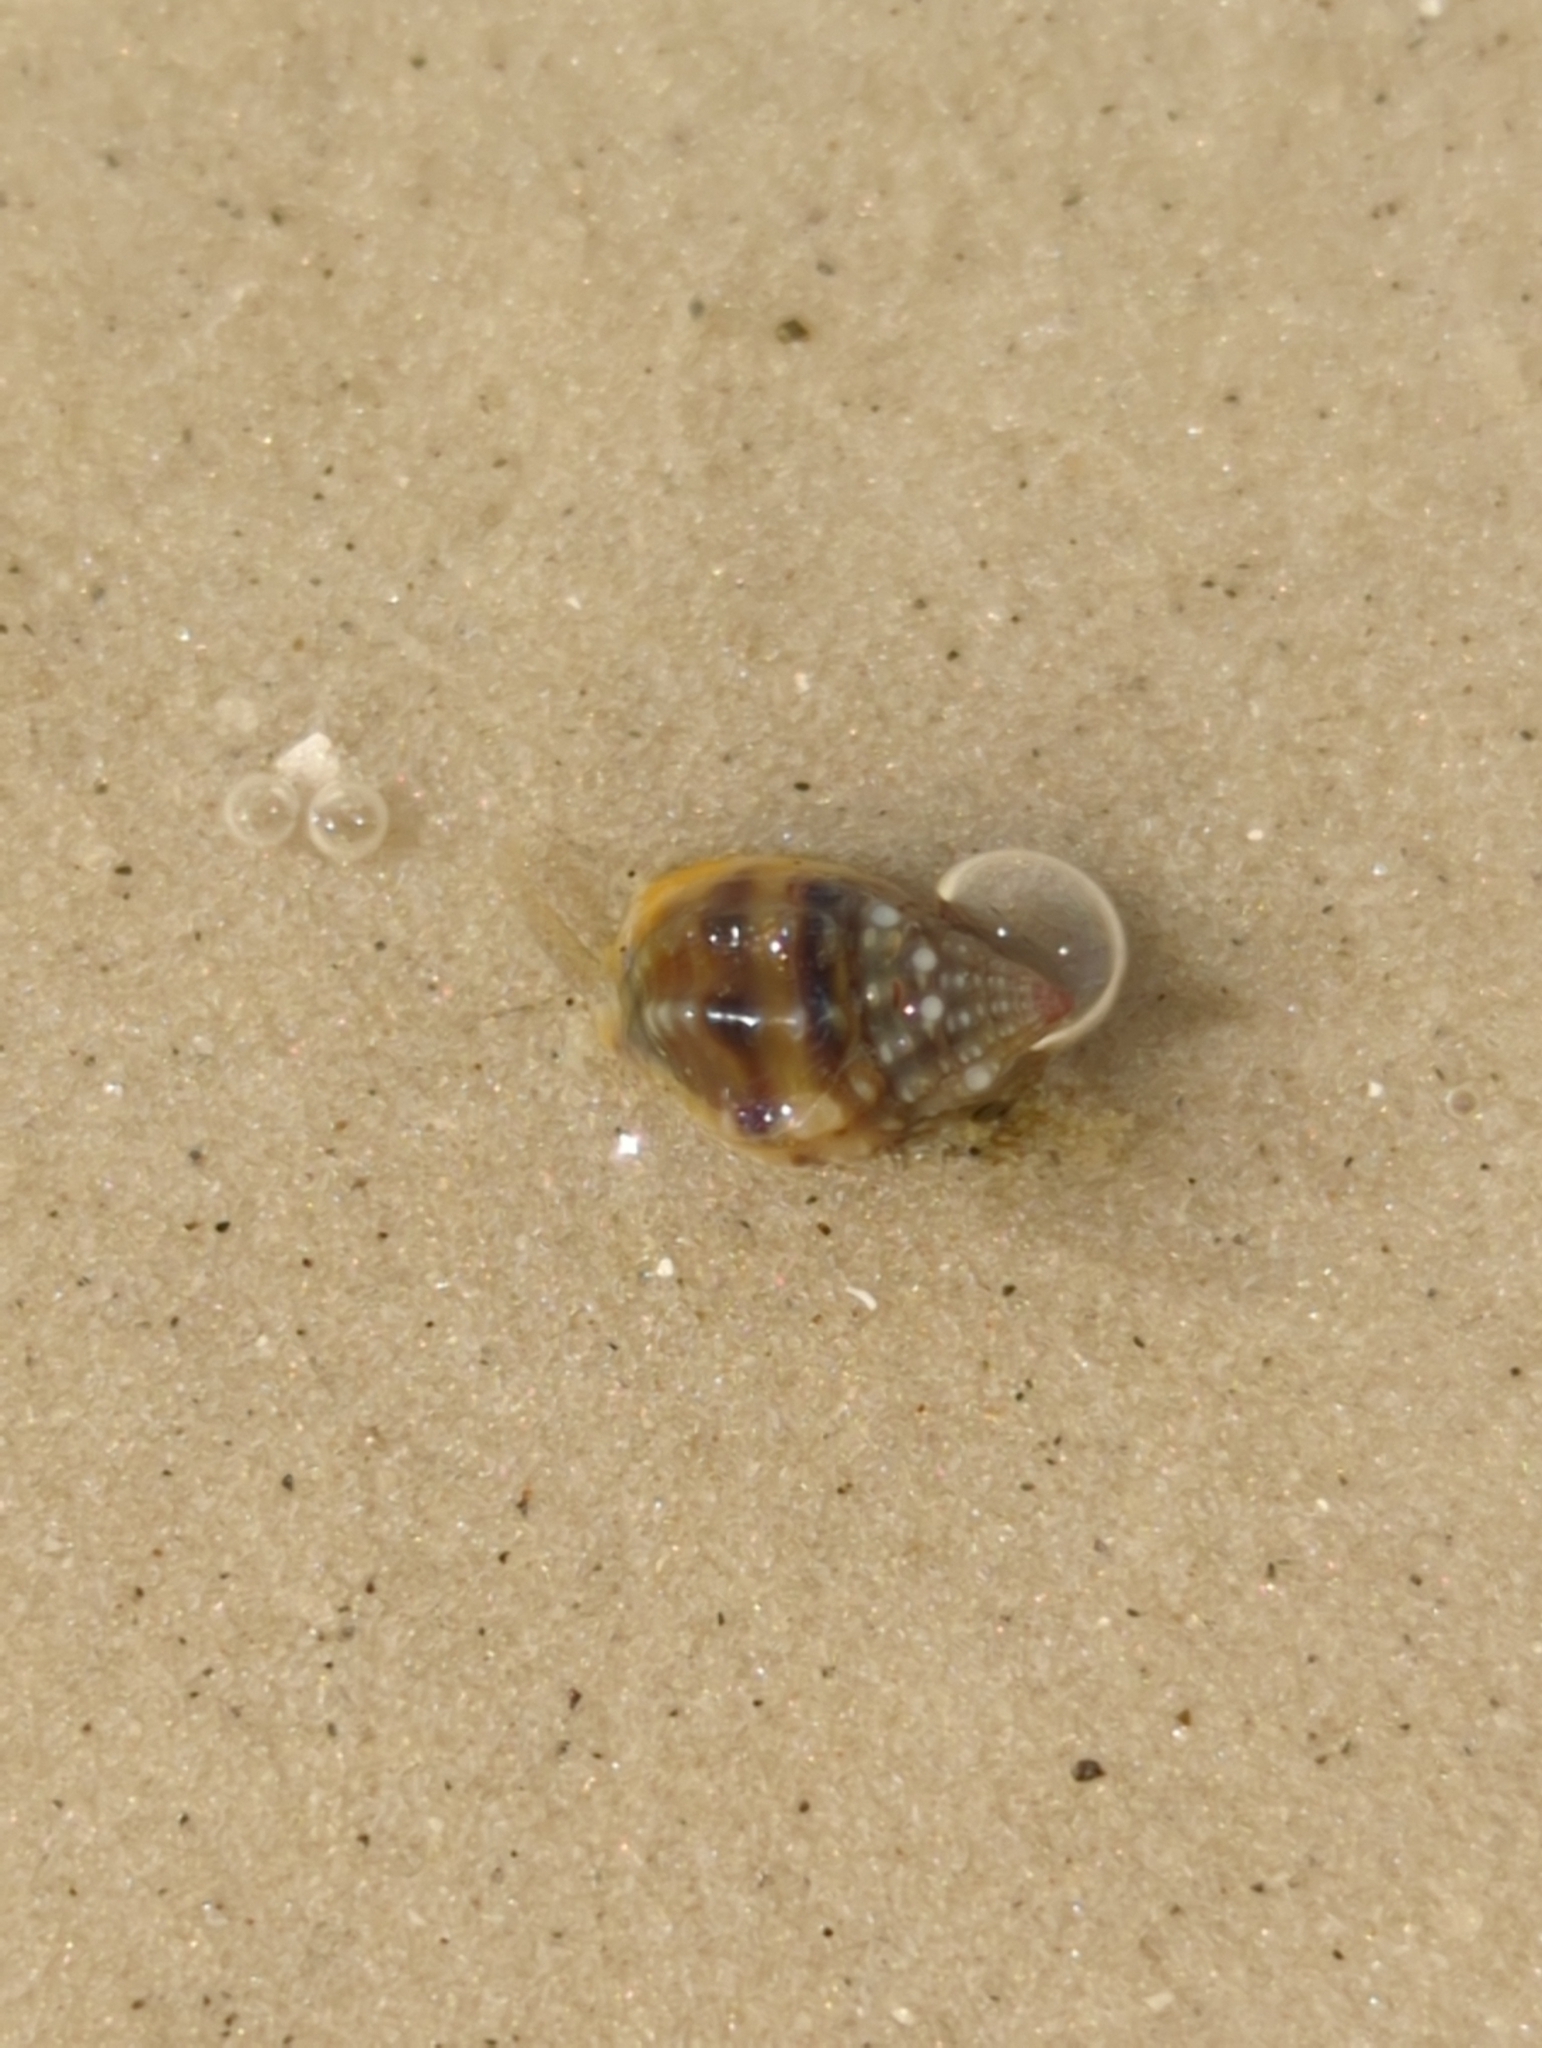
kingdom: Animalia
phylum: Mollusca
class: Gastropoda
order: Neogastropoda
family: Nassariidae
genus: Phrontis
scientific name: Phrontis vibex
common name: Bruised nassa
